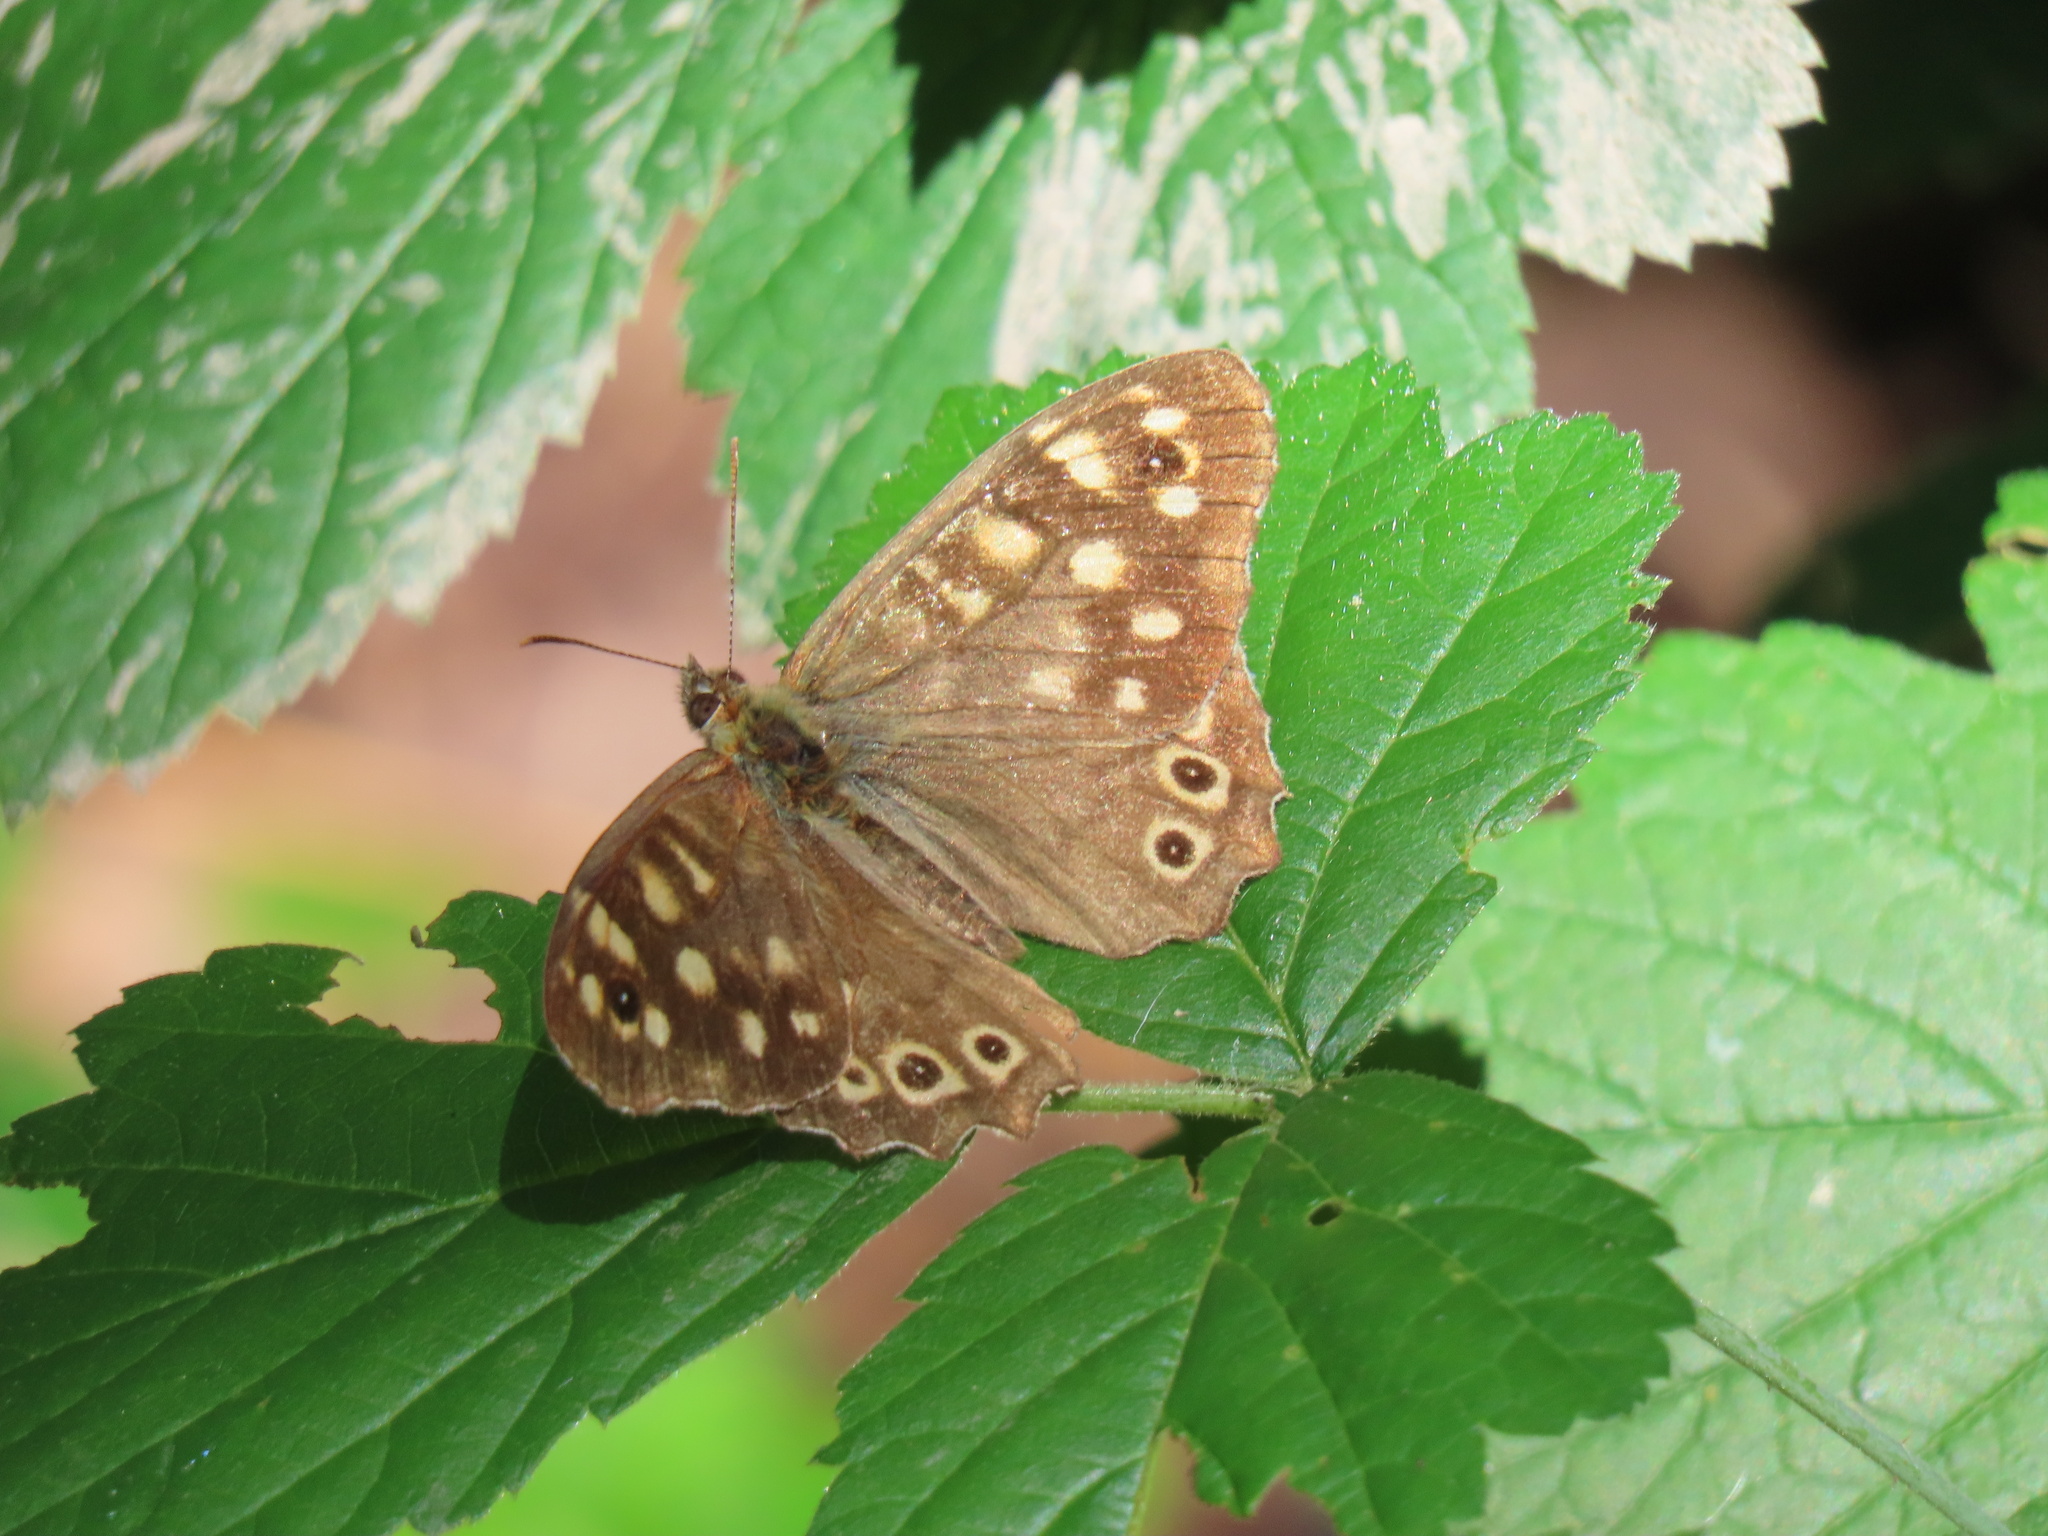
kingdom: Animalia
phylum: Arthropoda
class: Insecta
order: Lepidoptera
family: Nymphalidae
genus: Pararge
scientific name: Pararge aegeria
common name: Speckled wood
